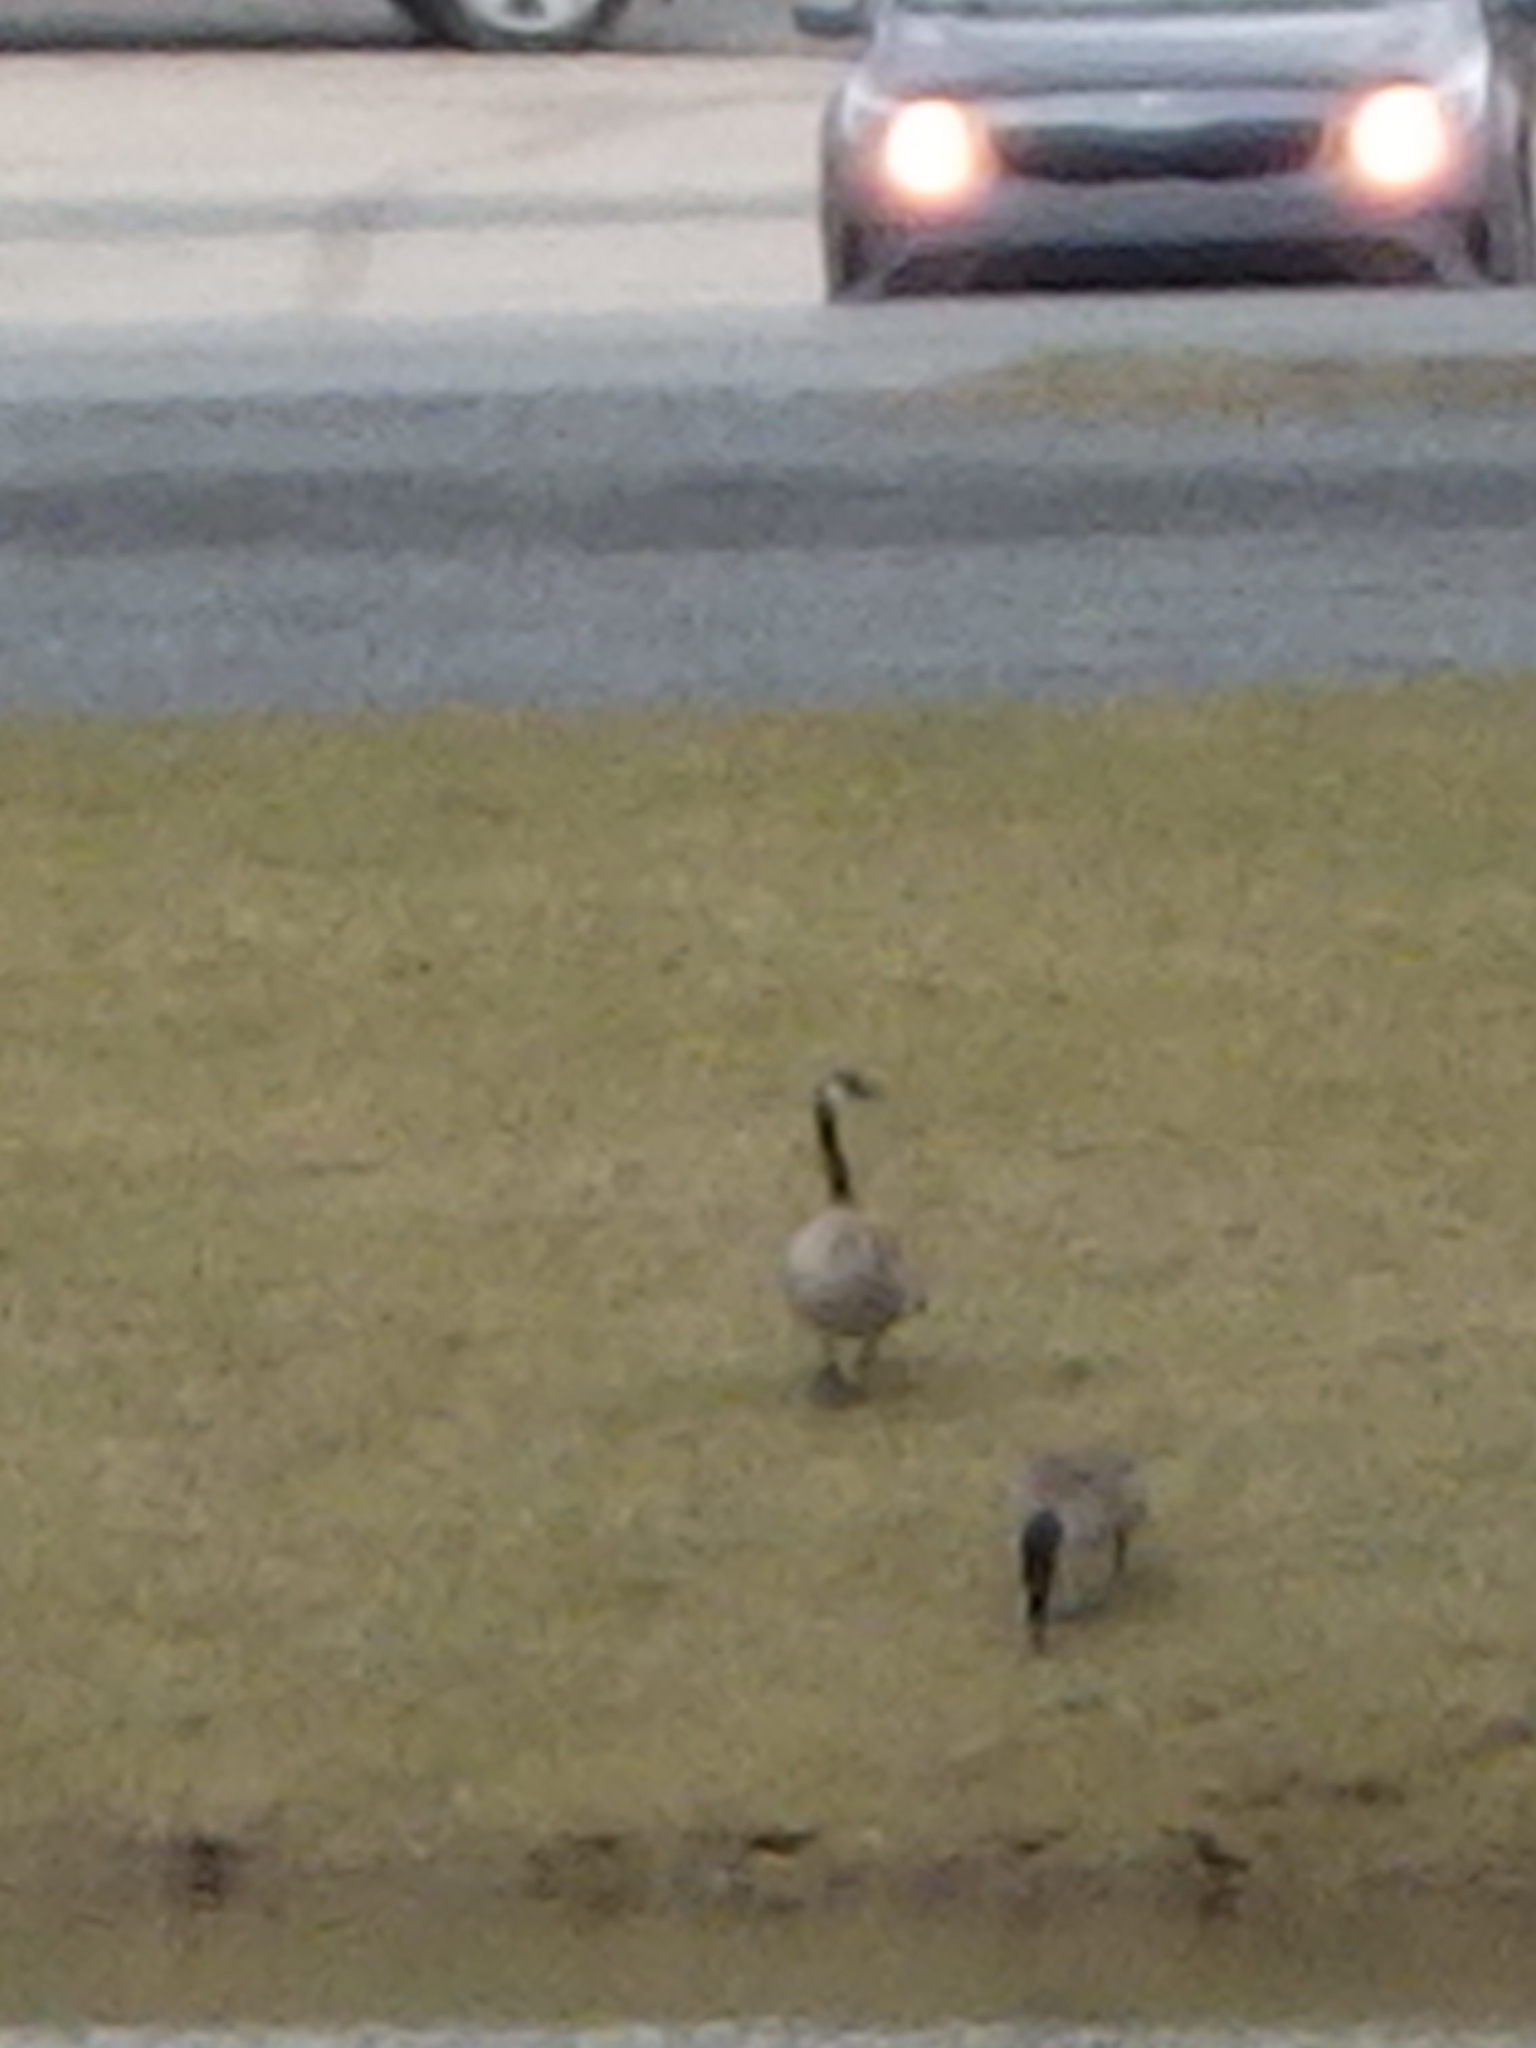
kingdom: Animalia
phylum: Chordata
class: Aves
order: Anseriformes
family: Anatidae
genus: Branta
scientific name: Branta canadensis
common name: Canada goose
